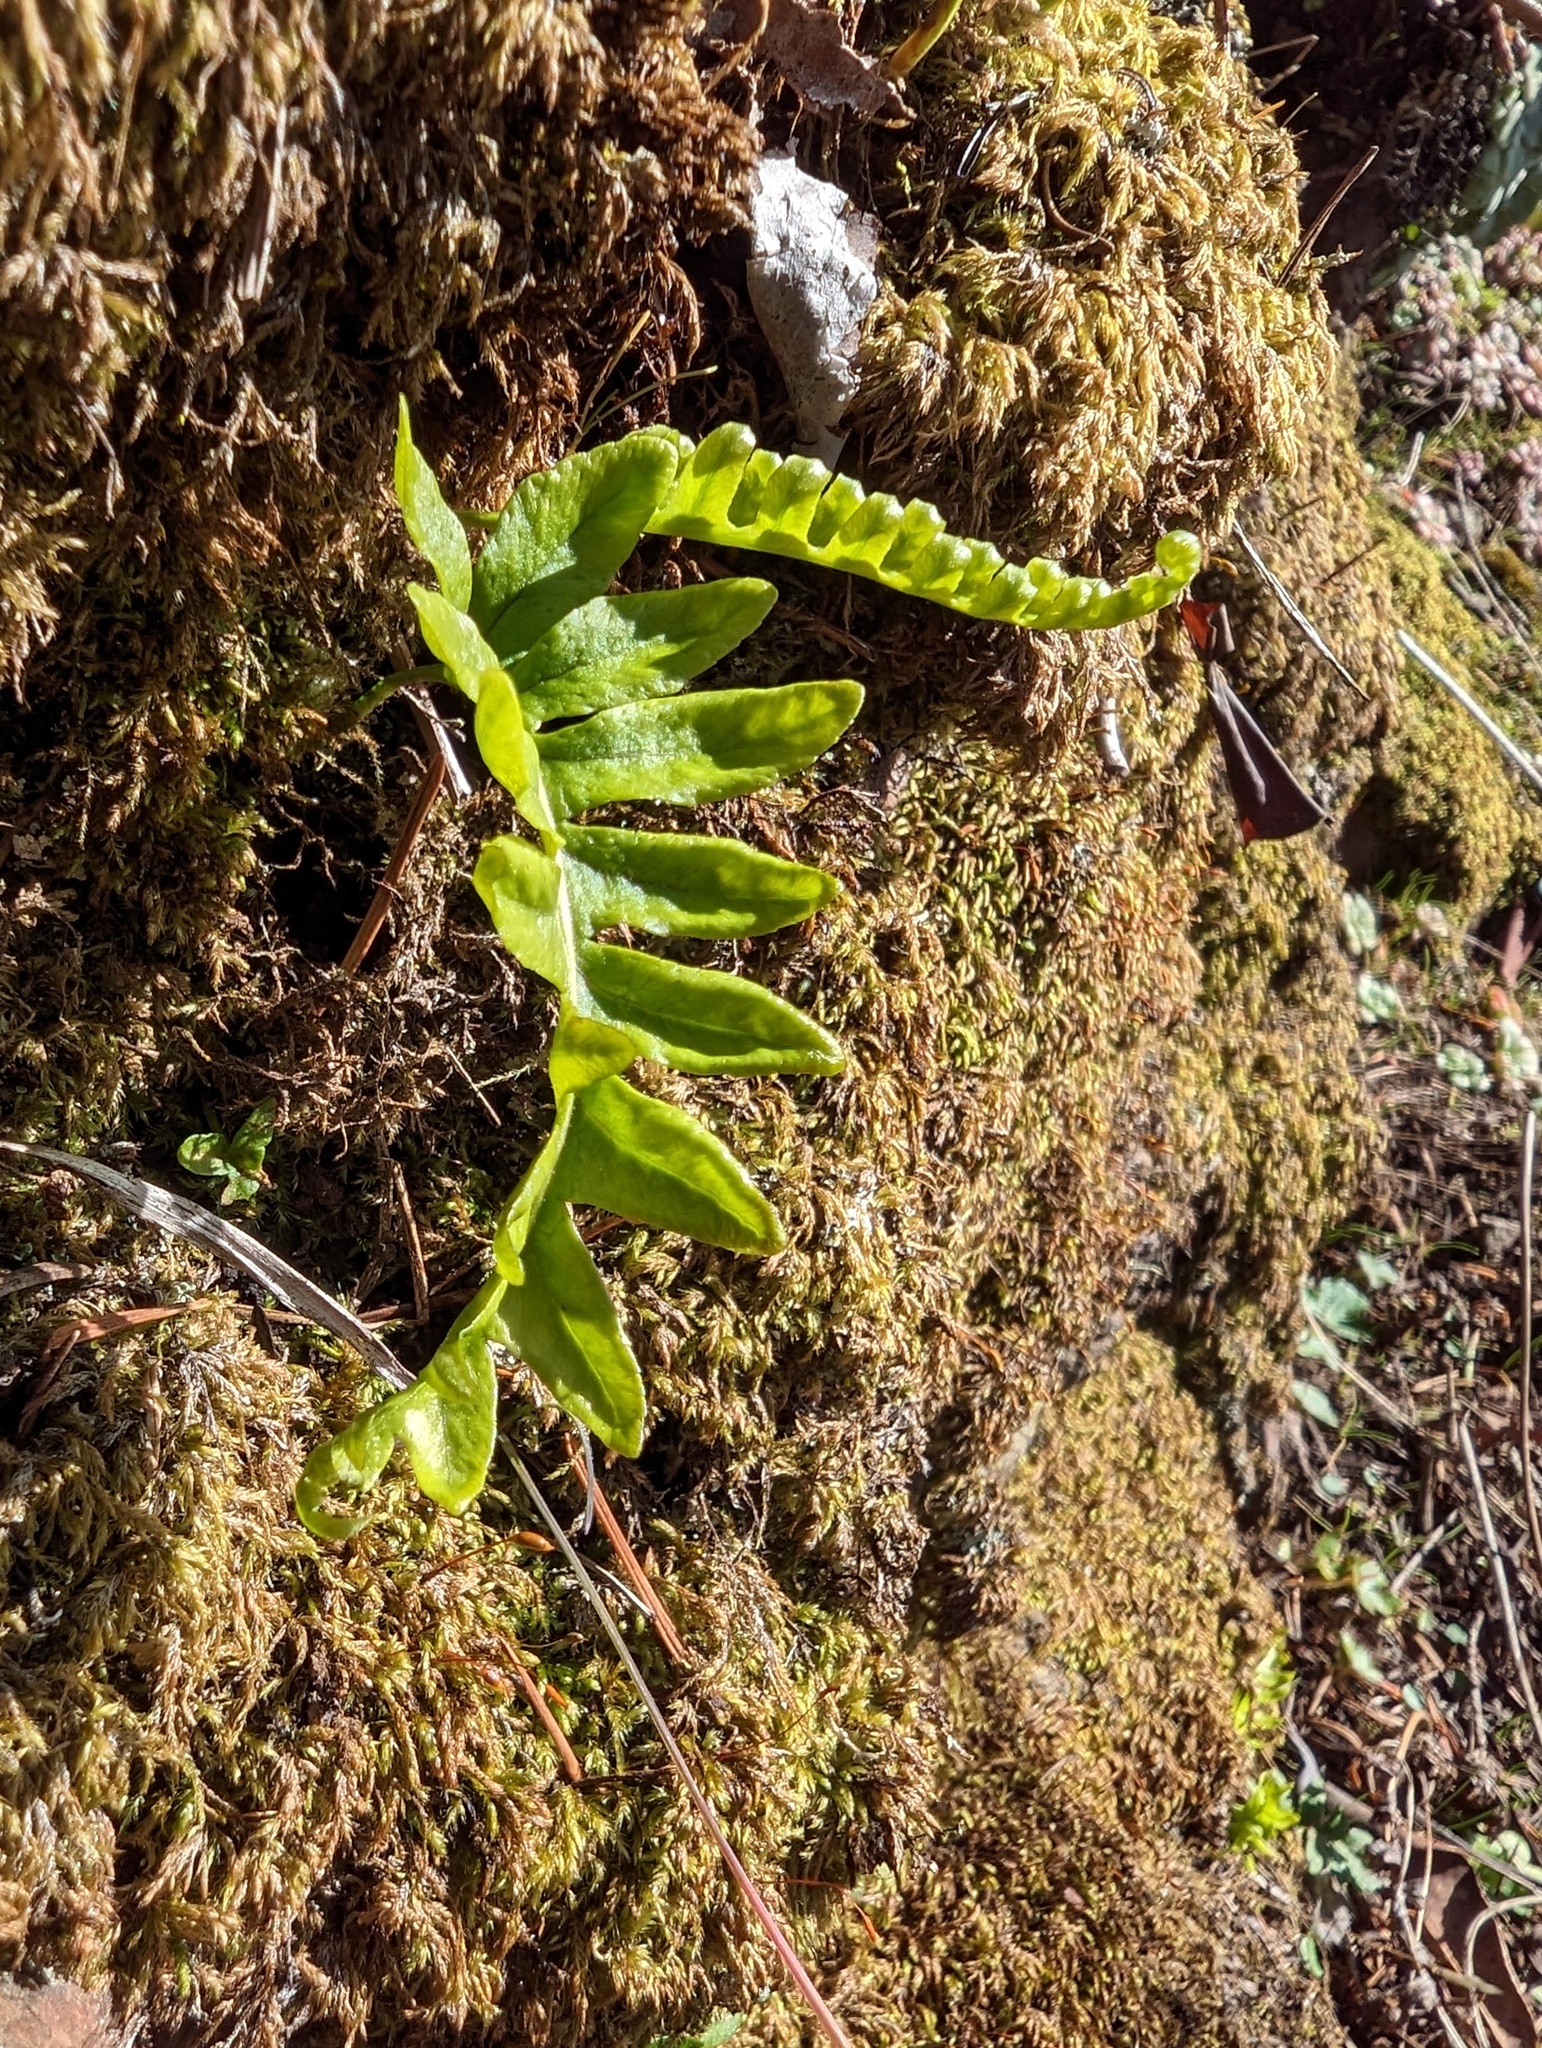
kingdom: Plantae
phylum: Tracheophyta
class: Polypodiopsida
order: Polypodiales
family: Polypodiaceae
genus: Polypodium
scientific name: Polypodium glycyrrhiza
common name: Licorice fern
